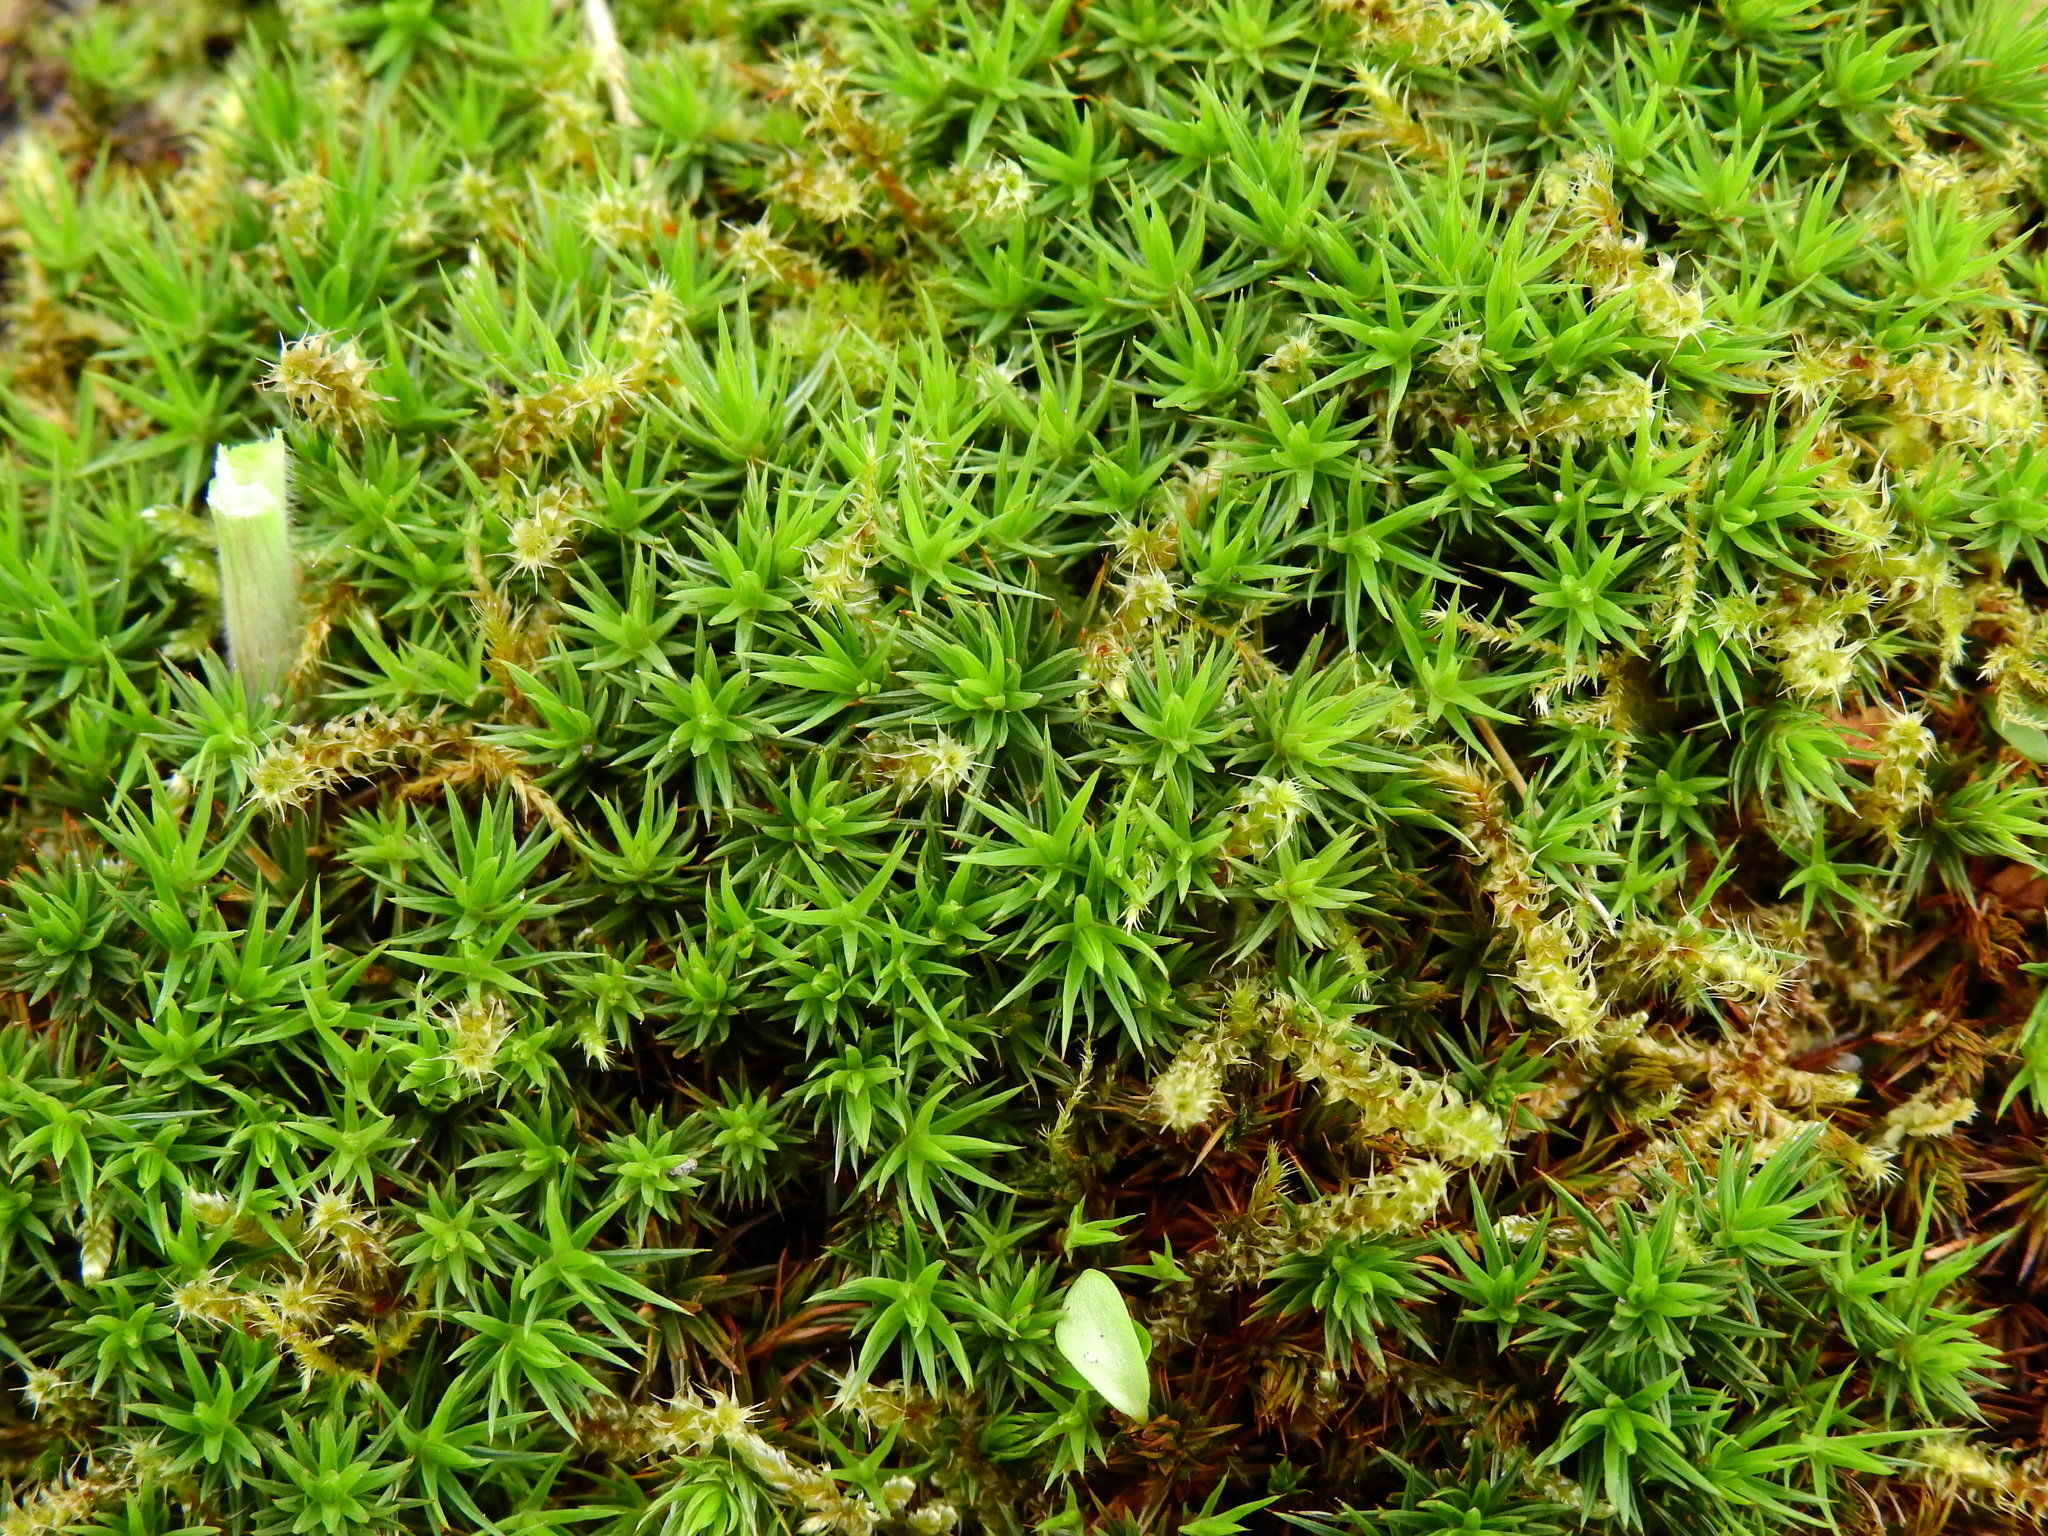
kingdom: Plantae
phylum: Bryophyta
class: Polytrichopsida
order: Polytrichales
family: Polytrichaceae
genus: Polytrichum
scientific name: Polytrichum juniperinum
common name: Juniper haircap moss
